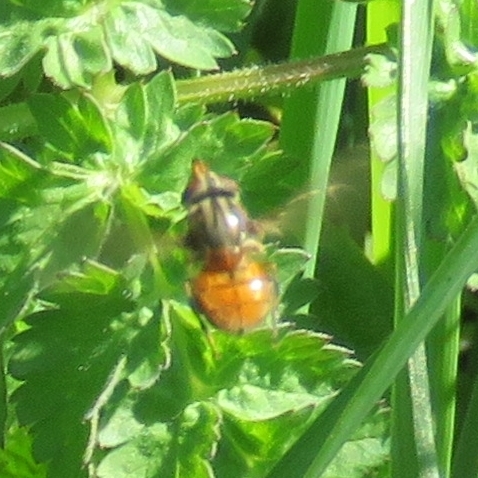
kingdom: Animalia
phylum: Arthropoda
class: Insecta
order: Diptera
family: Syrphidae
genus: Rhingia
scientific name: Rhingia campestris
